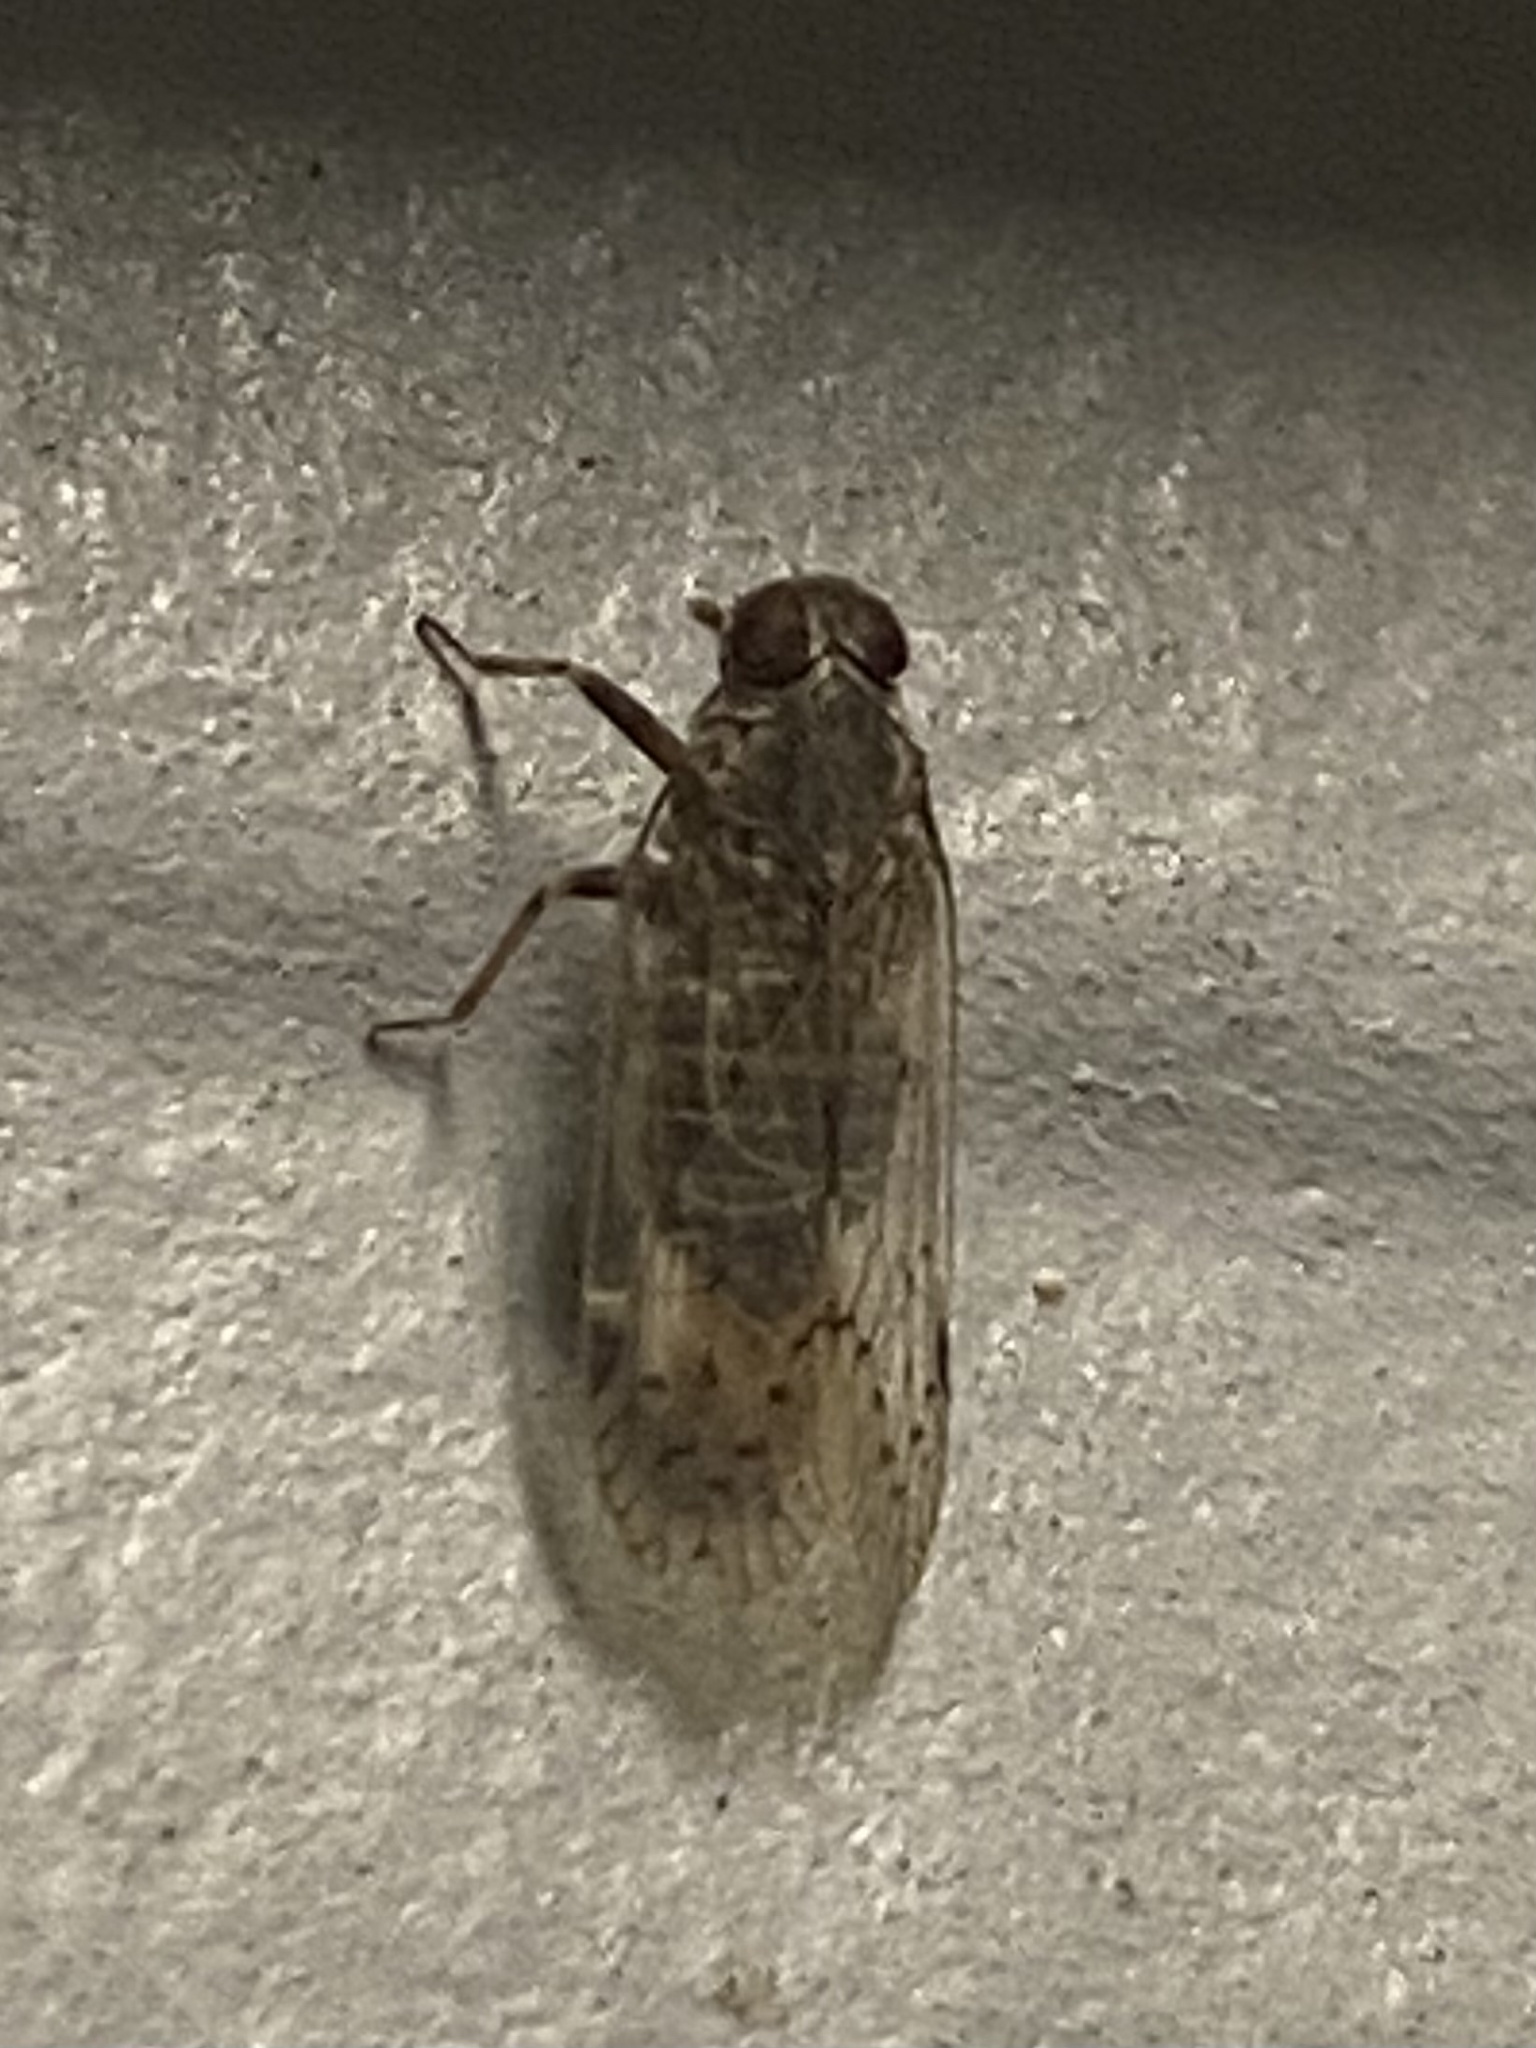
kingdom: Animalia
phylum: Arthropoda
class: Insecta
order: Hemiptera
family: Cixiidae
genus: Melanoliarus
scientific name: Melanoliarus aridus
